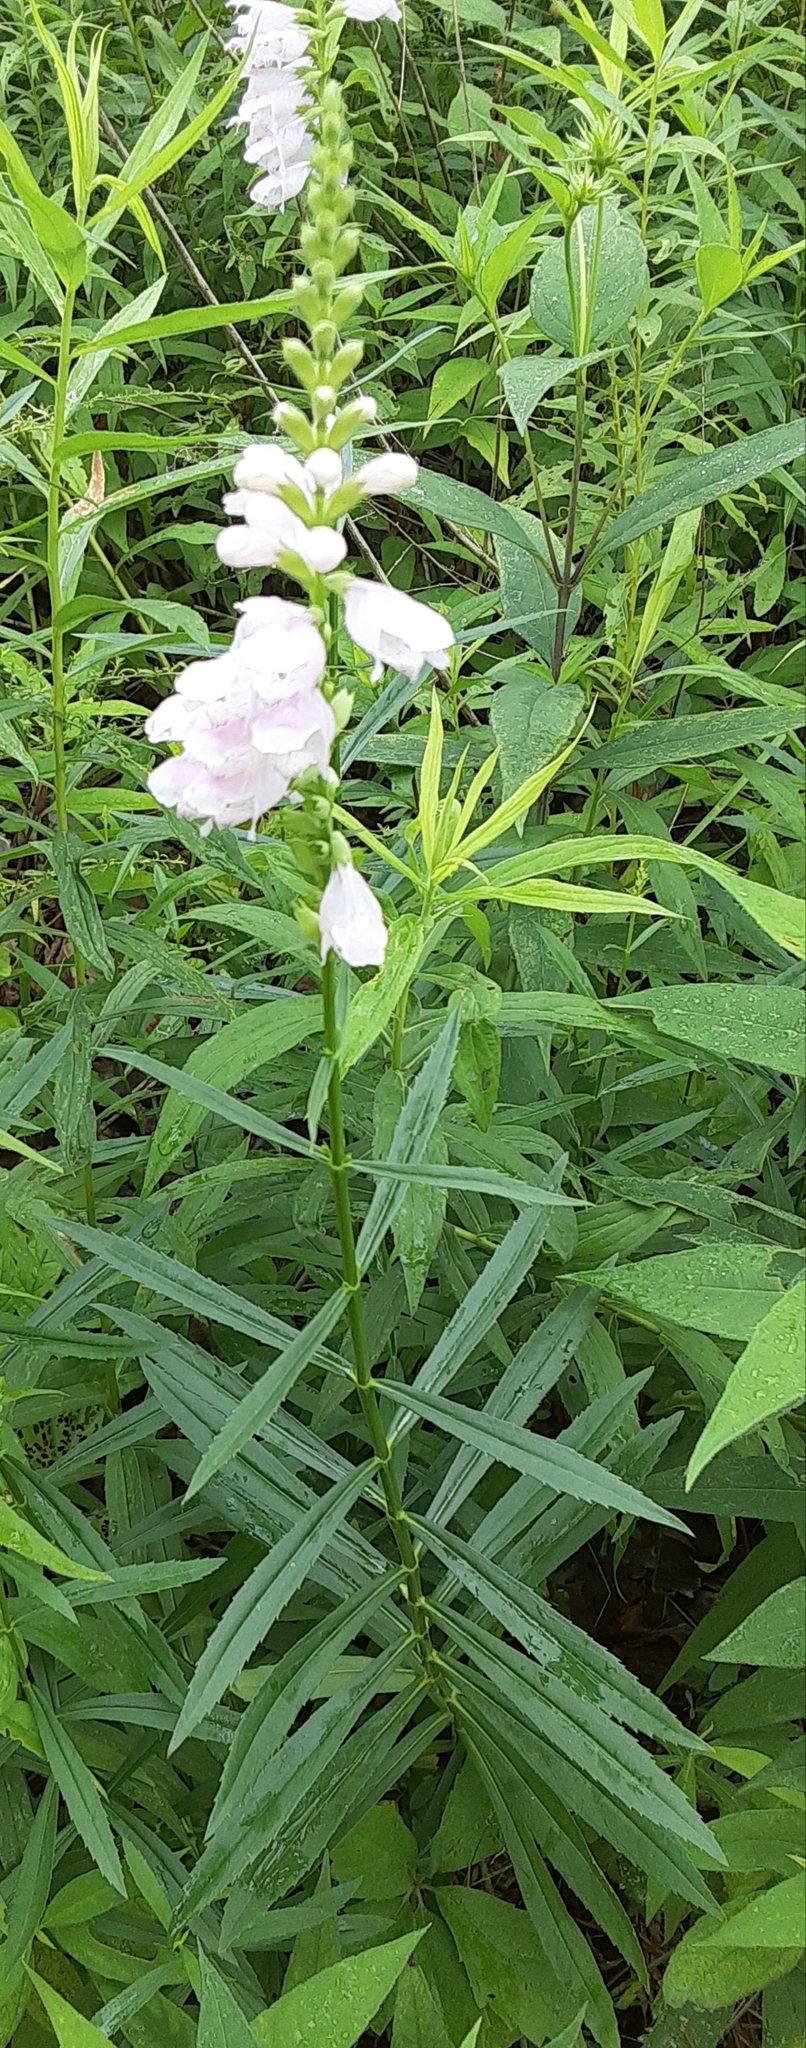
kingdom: Plantae
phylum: Tracheophyta
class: Magnoliopsida
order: Lamiales
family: Lamiaceae
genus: Physostegia
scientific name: Physostegia virginiana
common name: Obedient-plant
